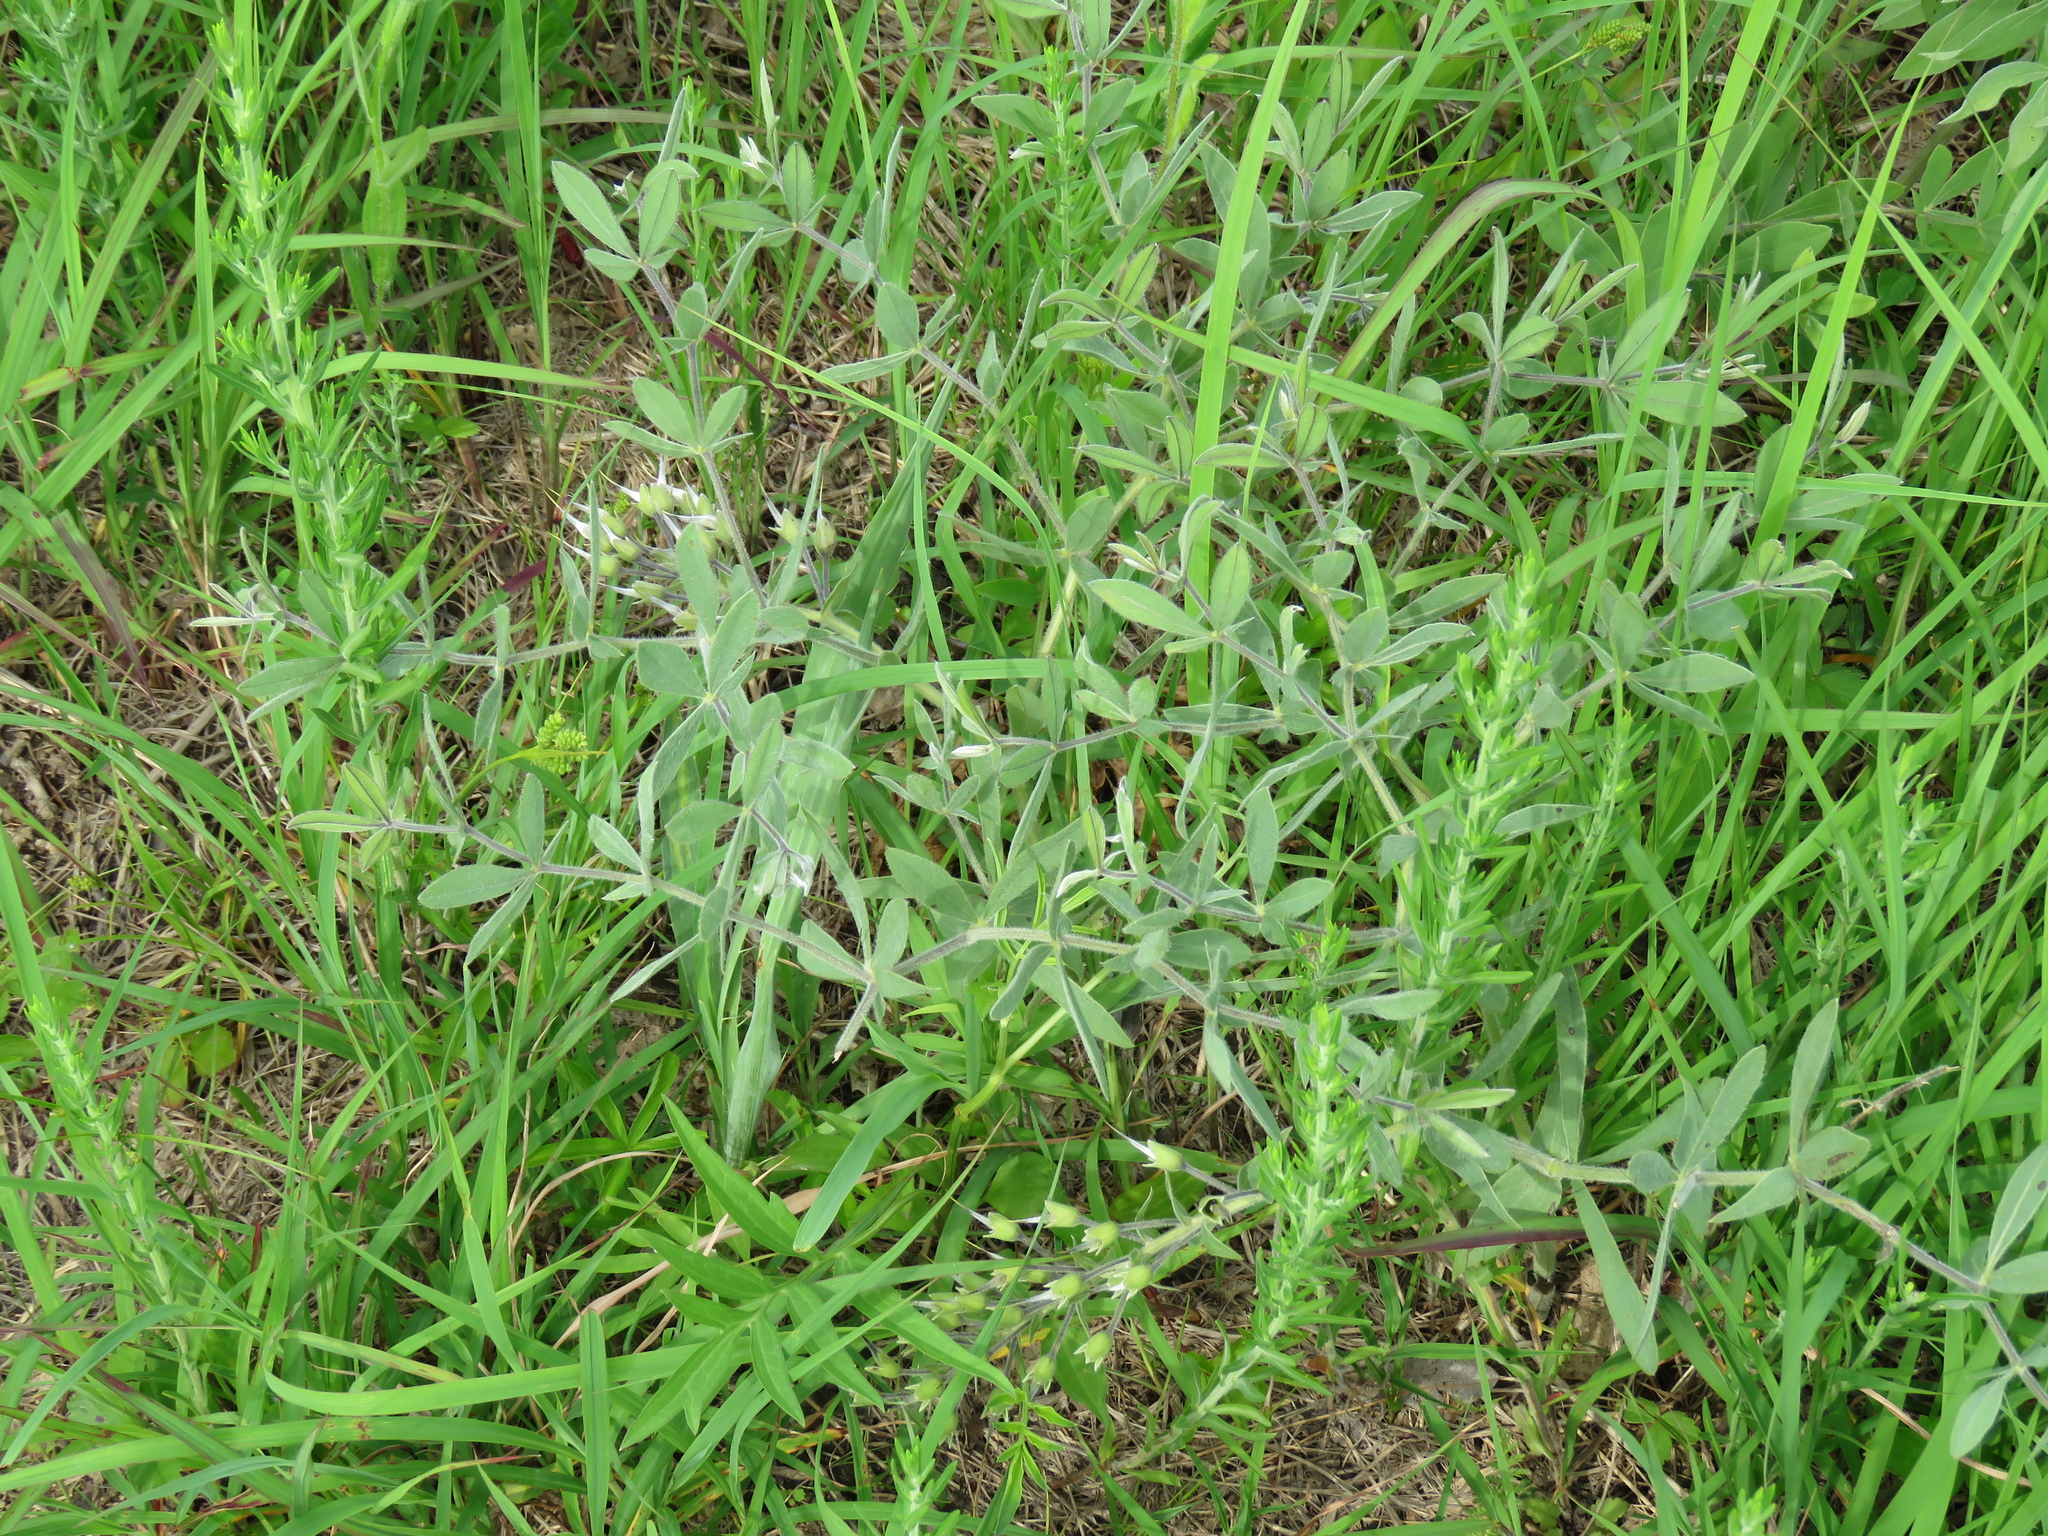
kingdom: Plantae
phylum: Tracheophyta
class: Magnoliopsida
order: Fabales
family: Fabaceae
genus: Baptisia
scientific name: Baptisia bracteata
